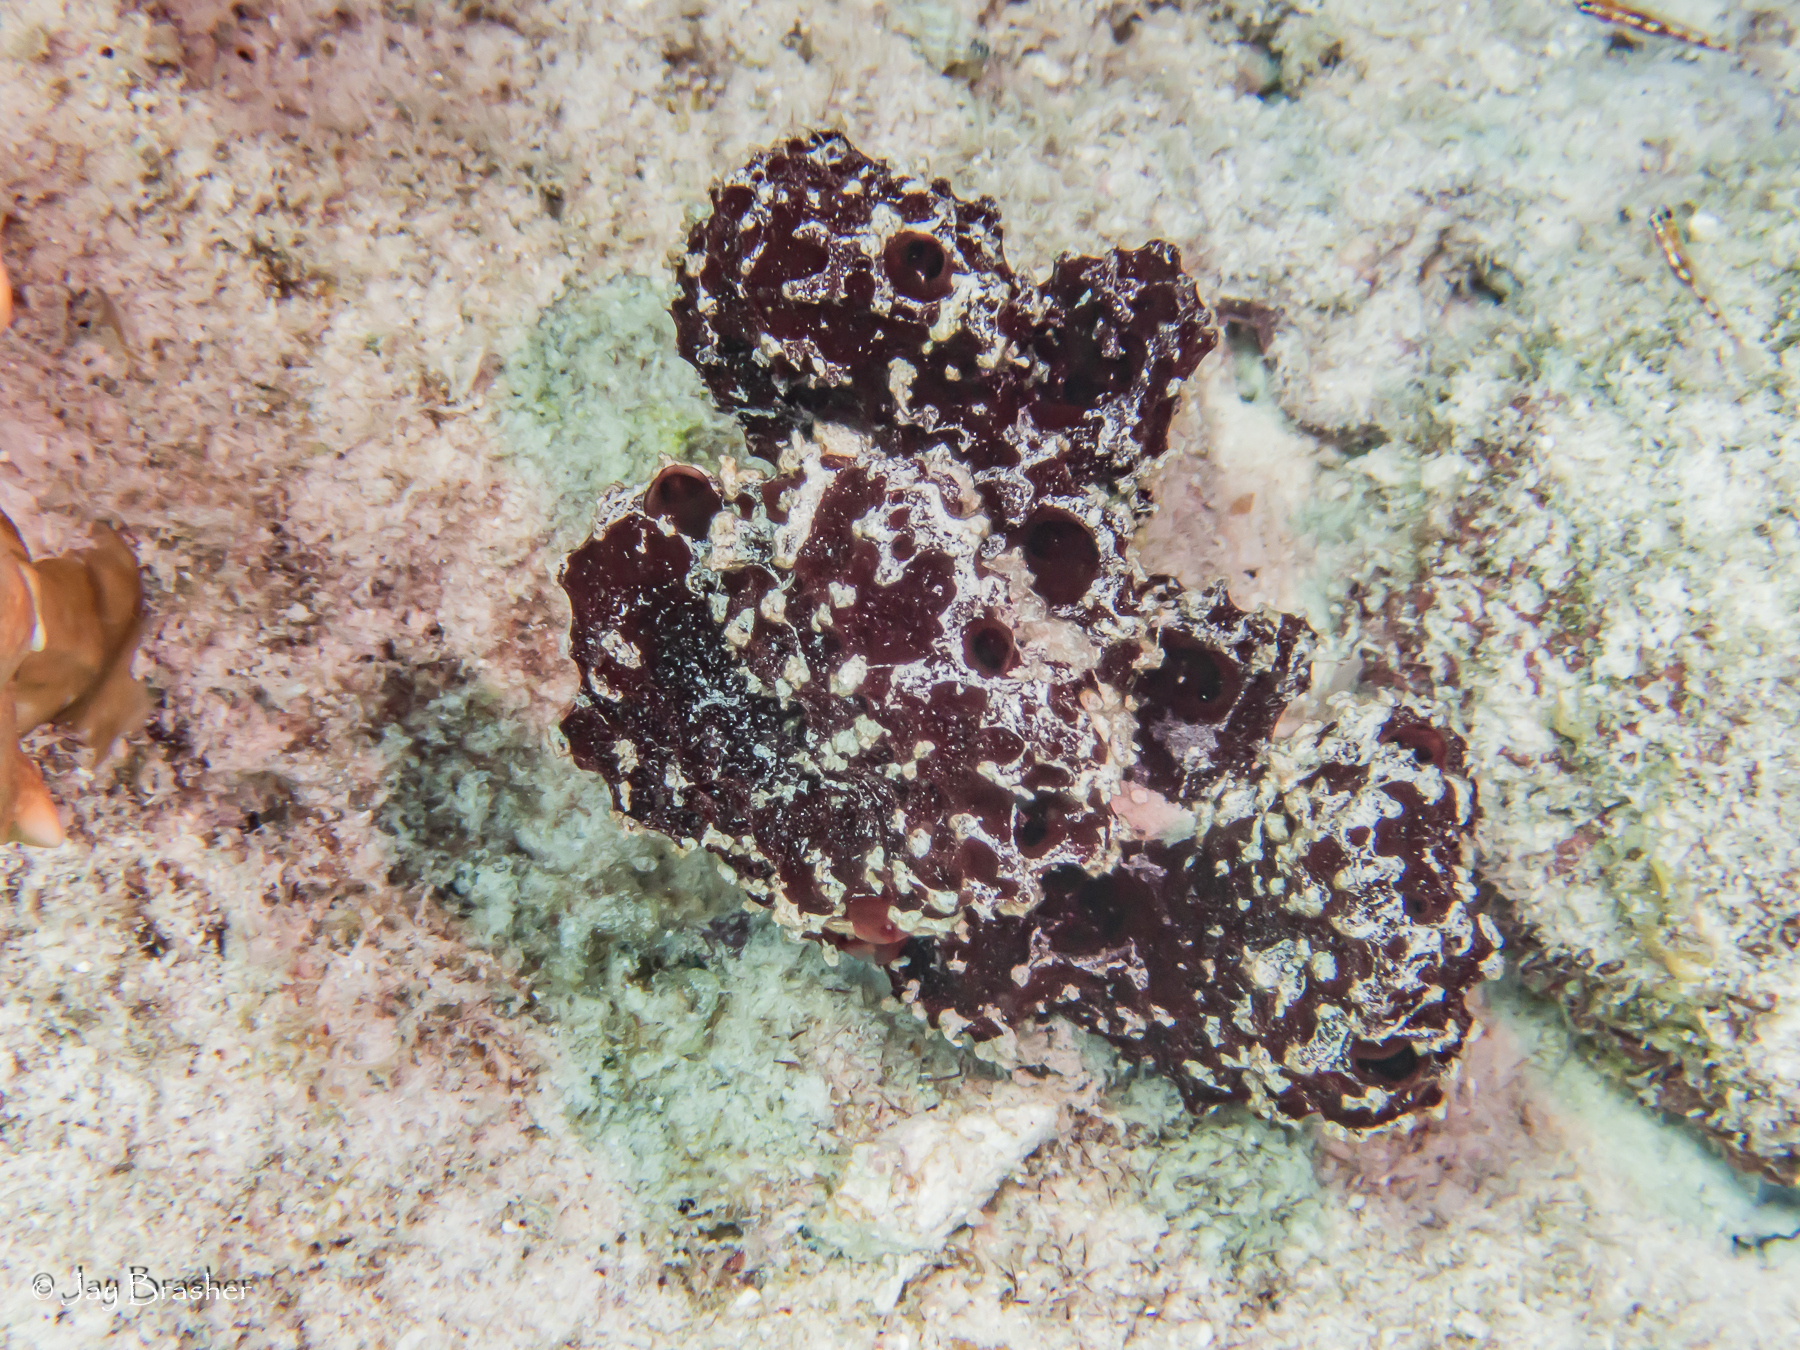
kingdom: Animalia
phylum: Porifera
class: Demospongiae
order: Poecilosclerida
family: Microcionidae
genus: Pandaros
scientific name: Pandaros acanthifolium
